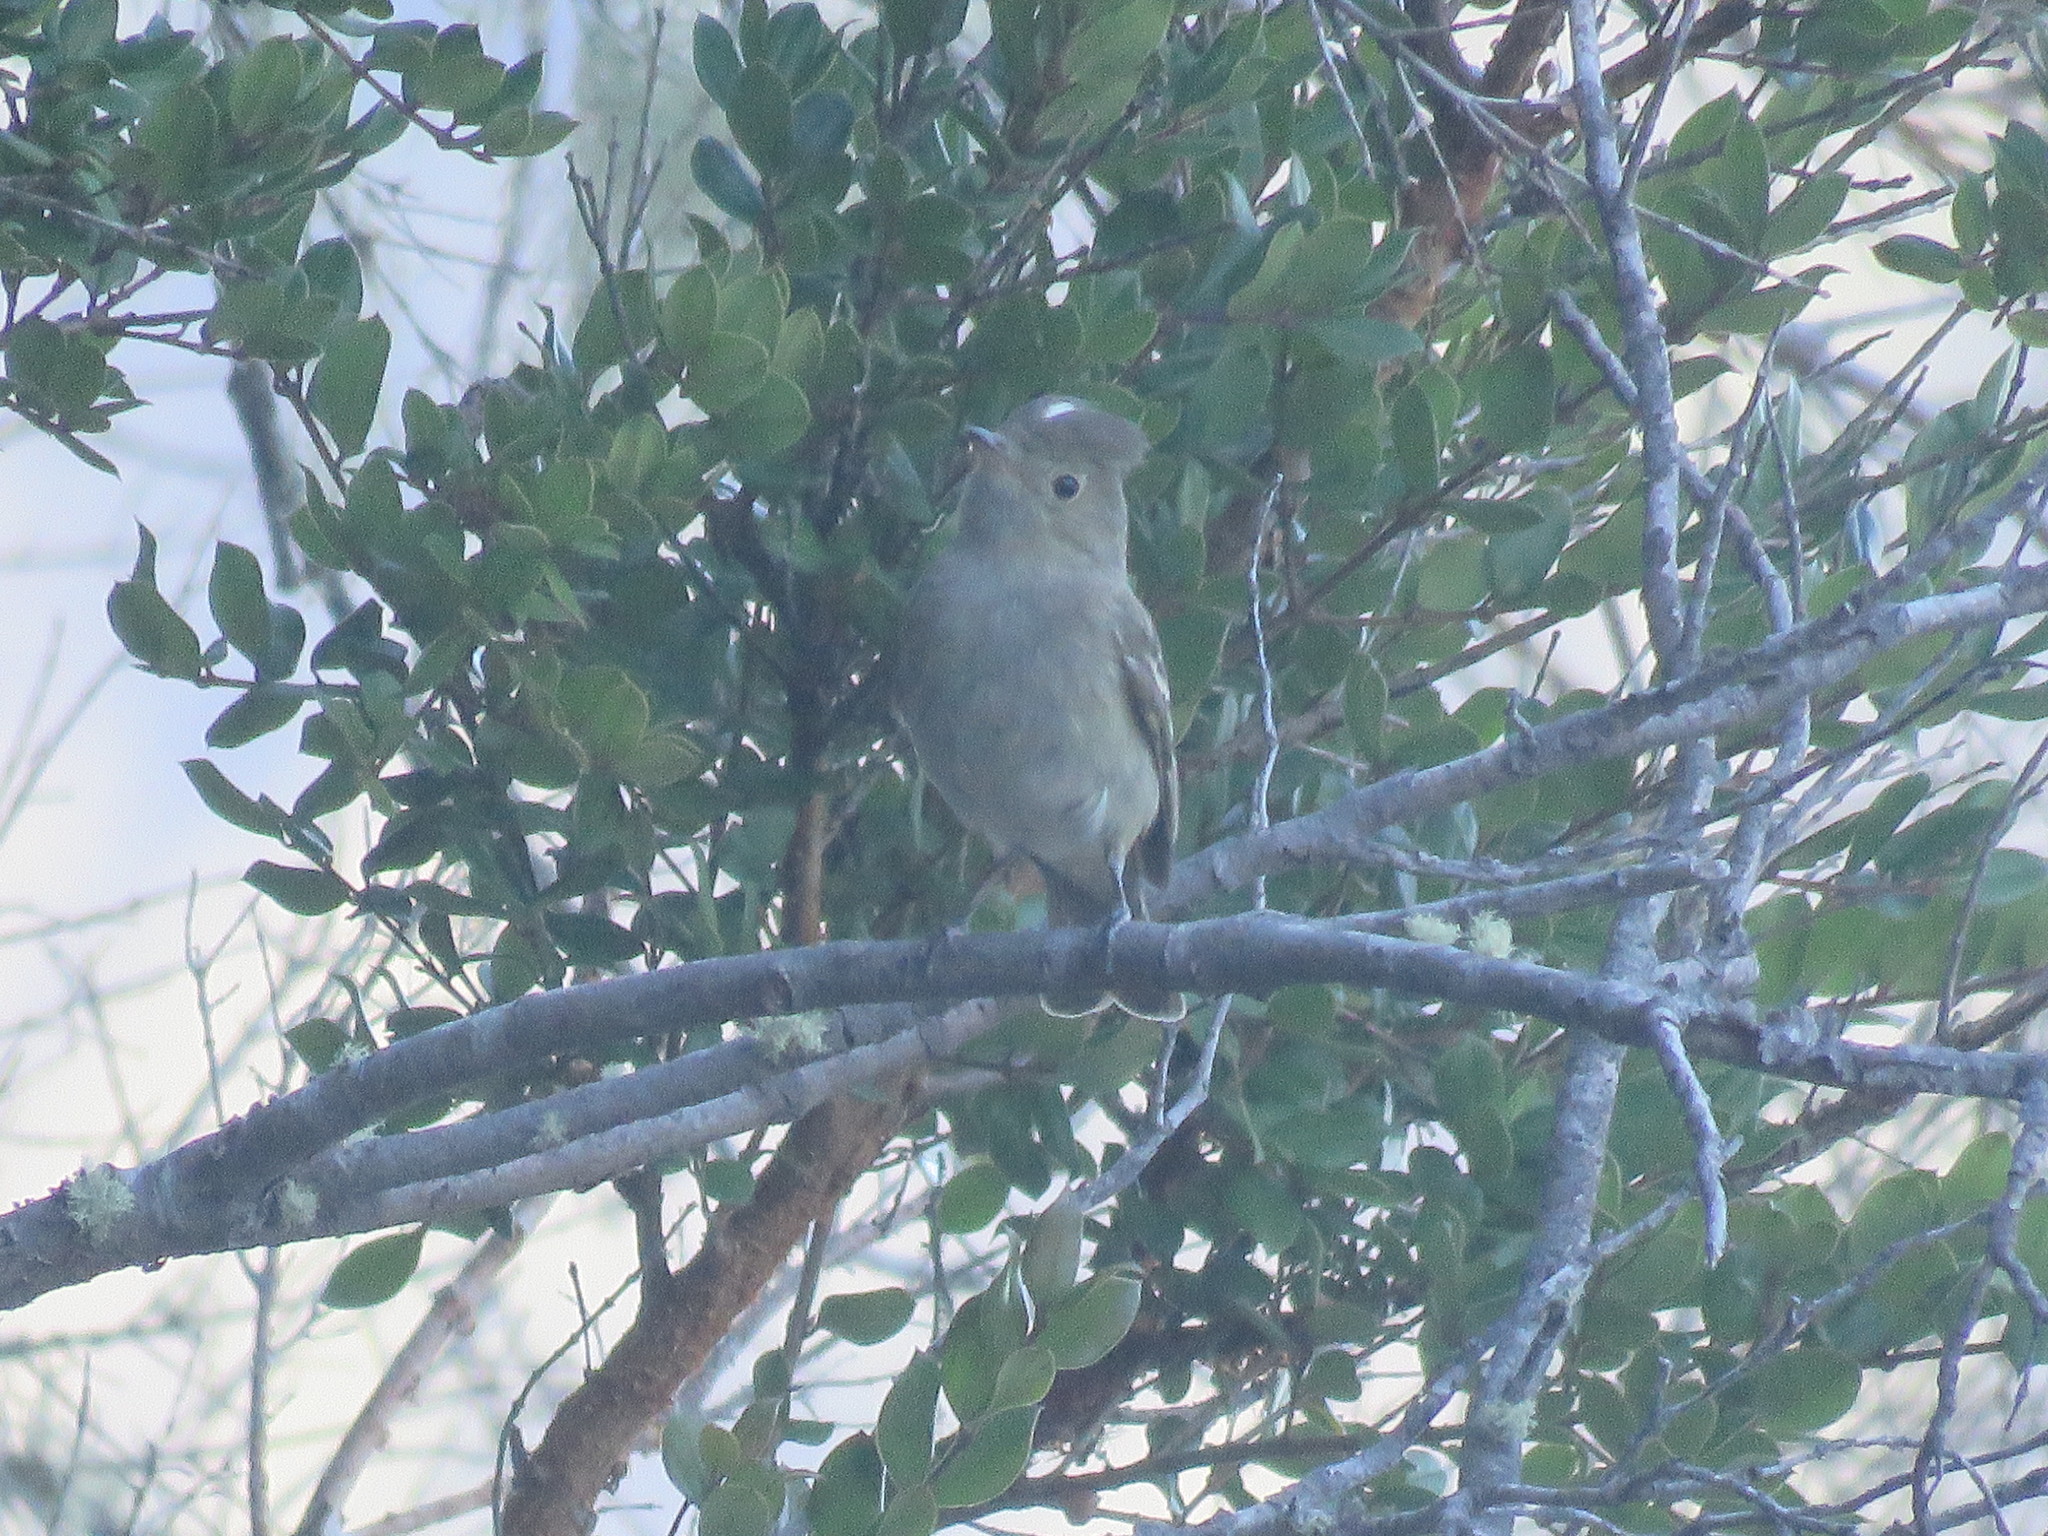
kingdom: Animalia
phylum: Chordata
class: Aves
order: Passeriformes
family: Tyrannidae
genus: Elaenia
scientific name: Elaenia albiceps
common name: White-crested elaenia
